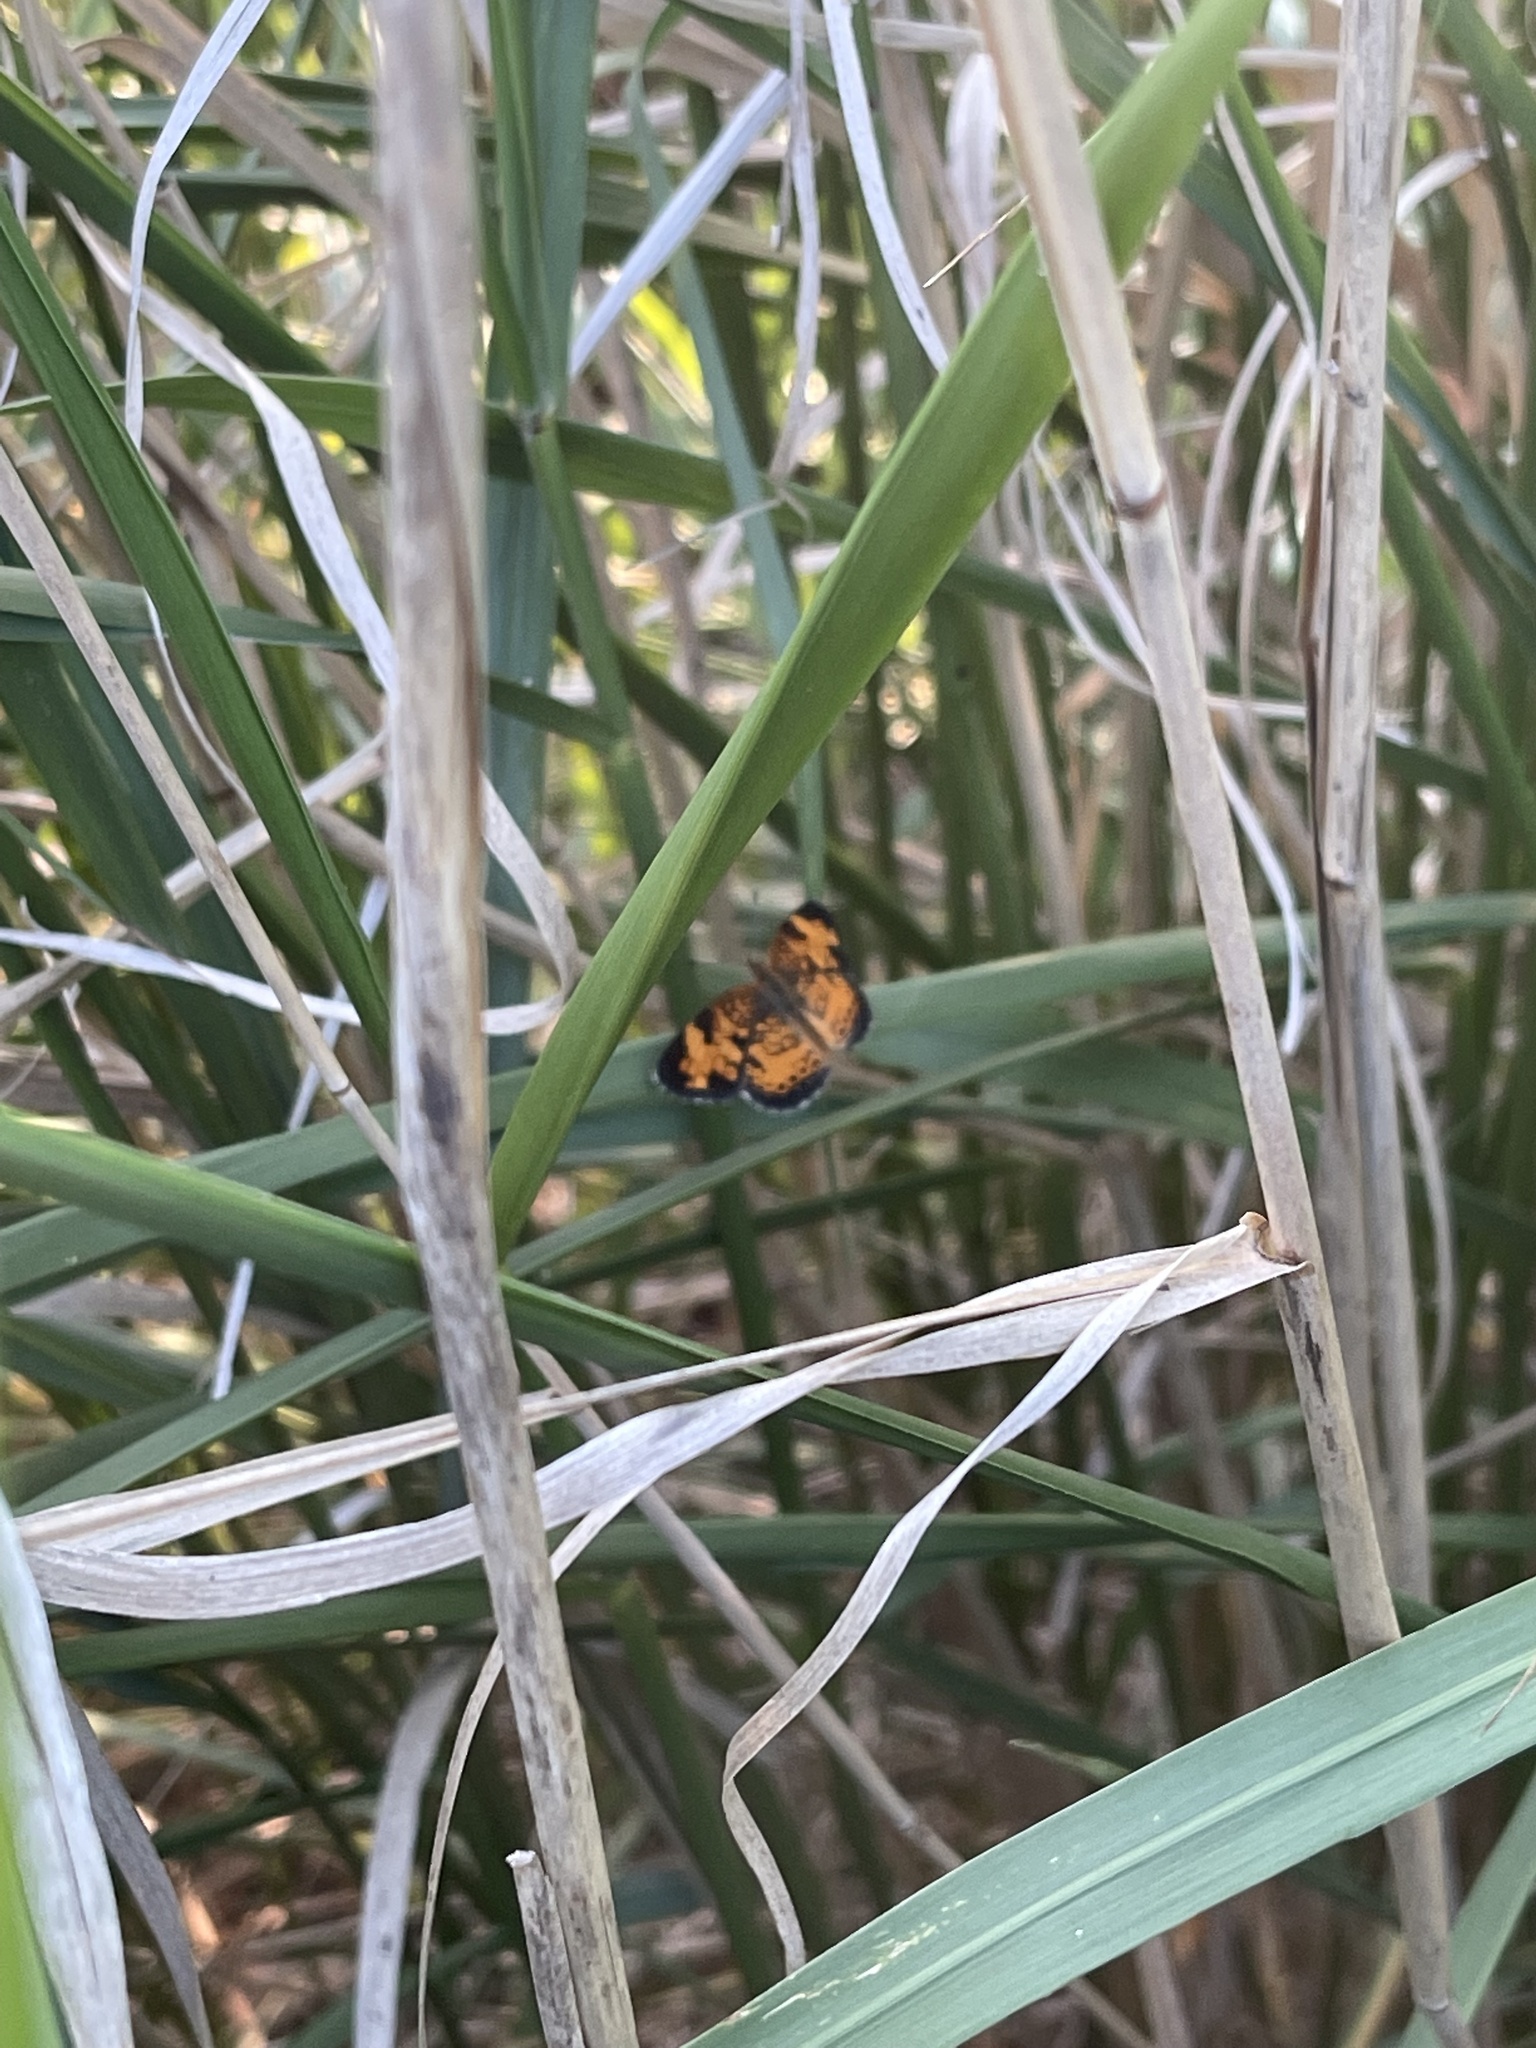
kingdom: Animalia
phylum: Arthropoda
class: Insecta
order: Lepidoptera
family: Nymphalidae
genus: Phyciodes
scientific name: Phyciodes tharos
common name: Pearl crescent
